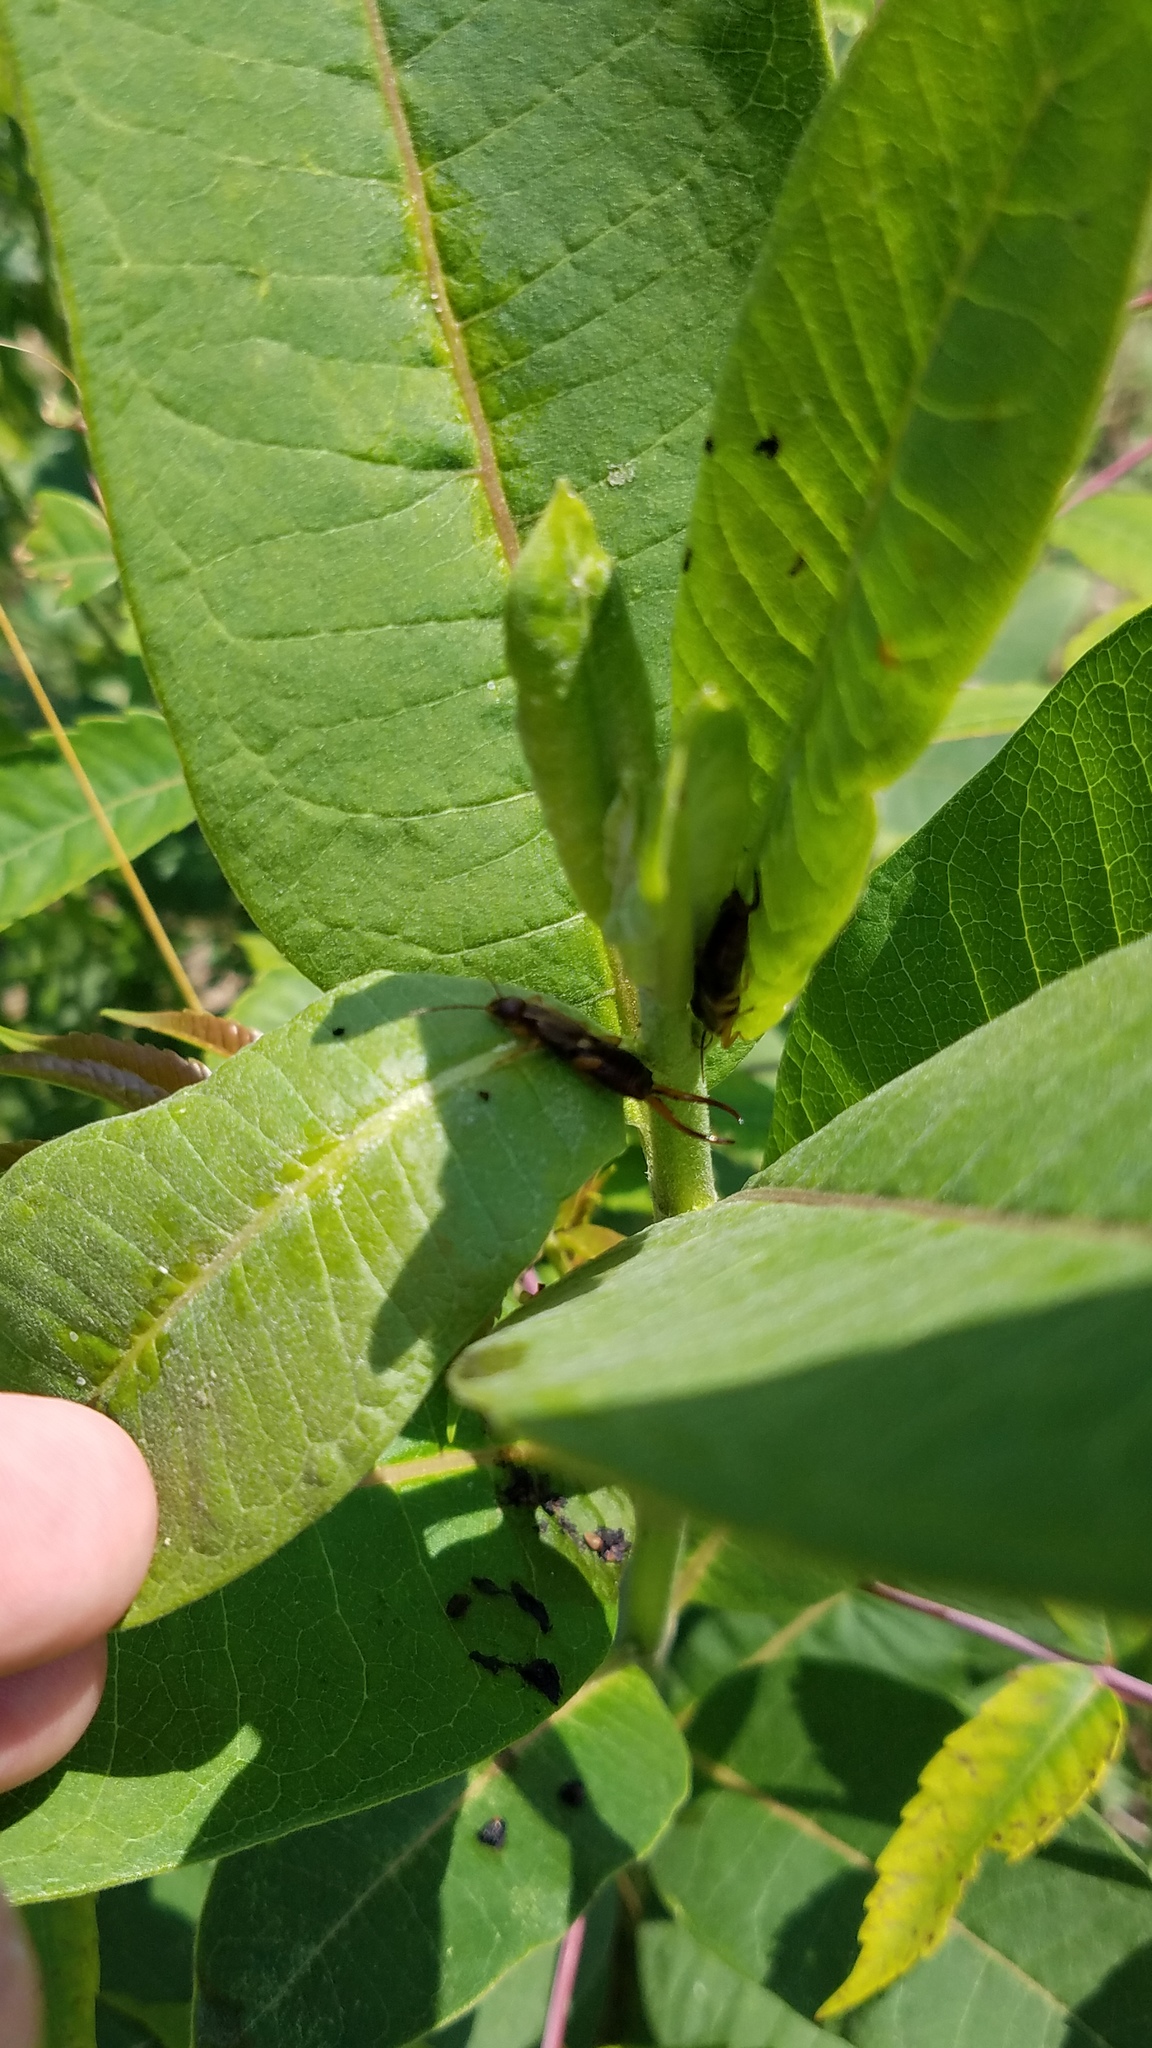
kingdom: Animalia
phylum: Arthropoda
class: Insecta
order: Dermaptera
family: Forficulidae
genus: Forficula
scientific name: Forficula
